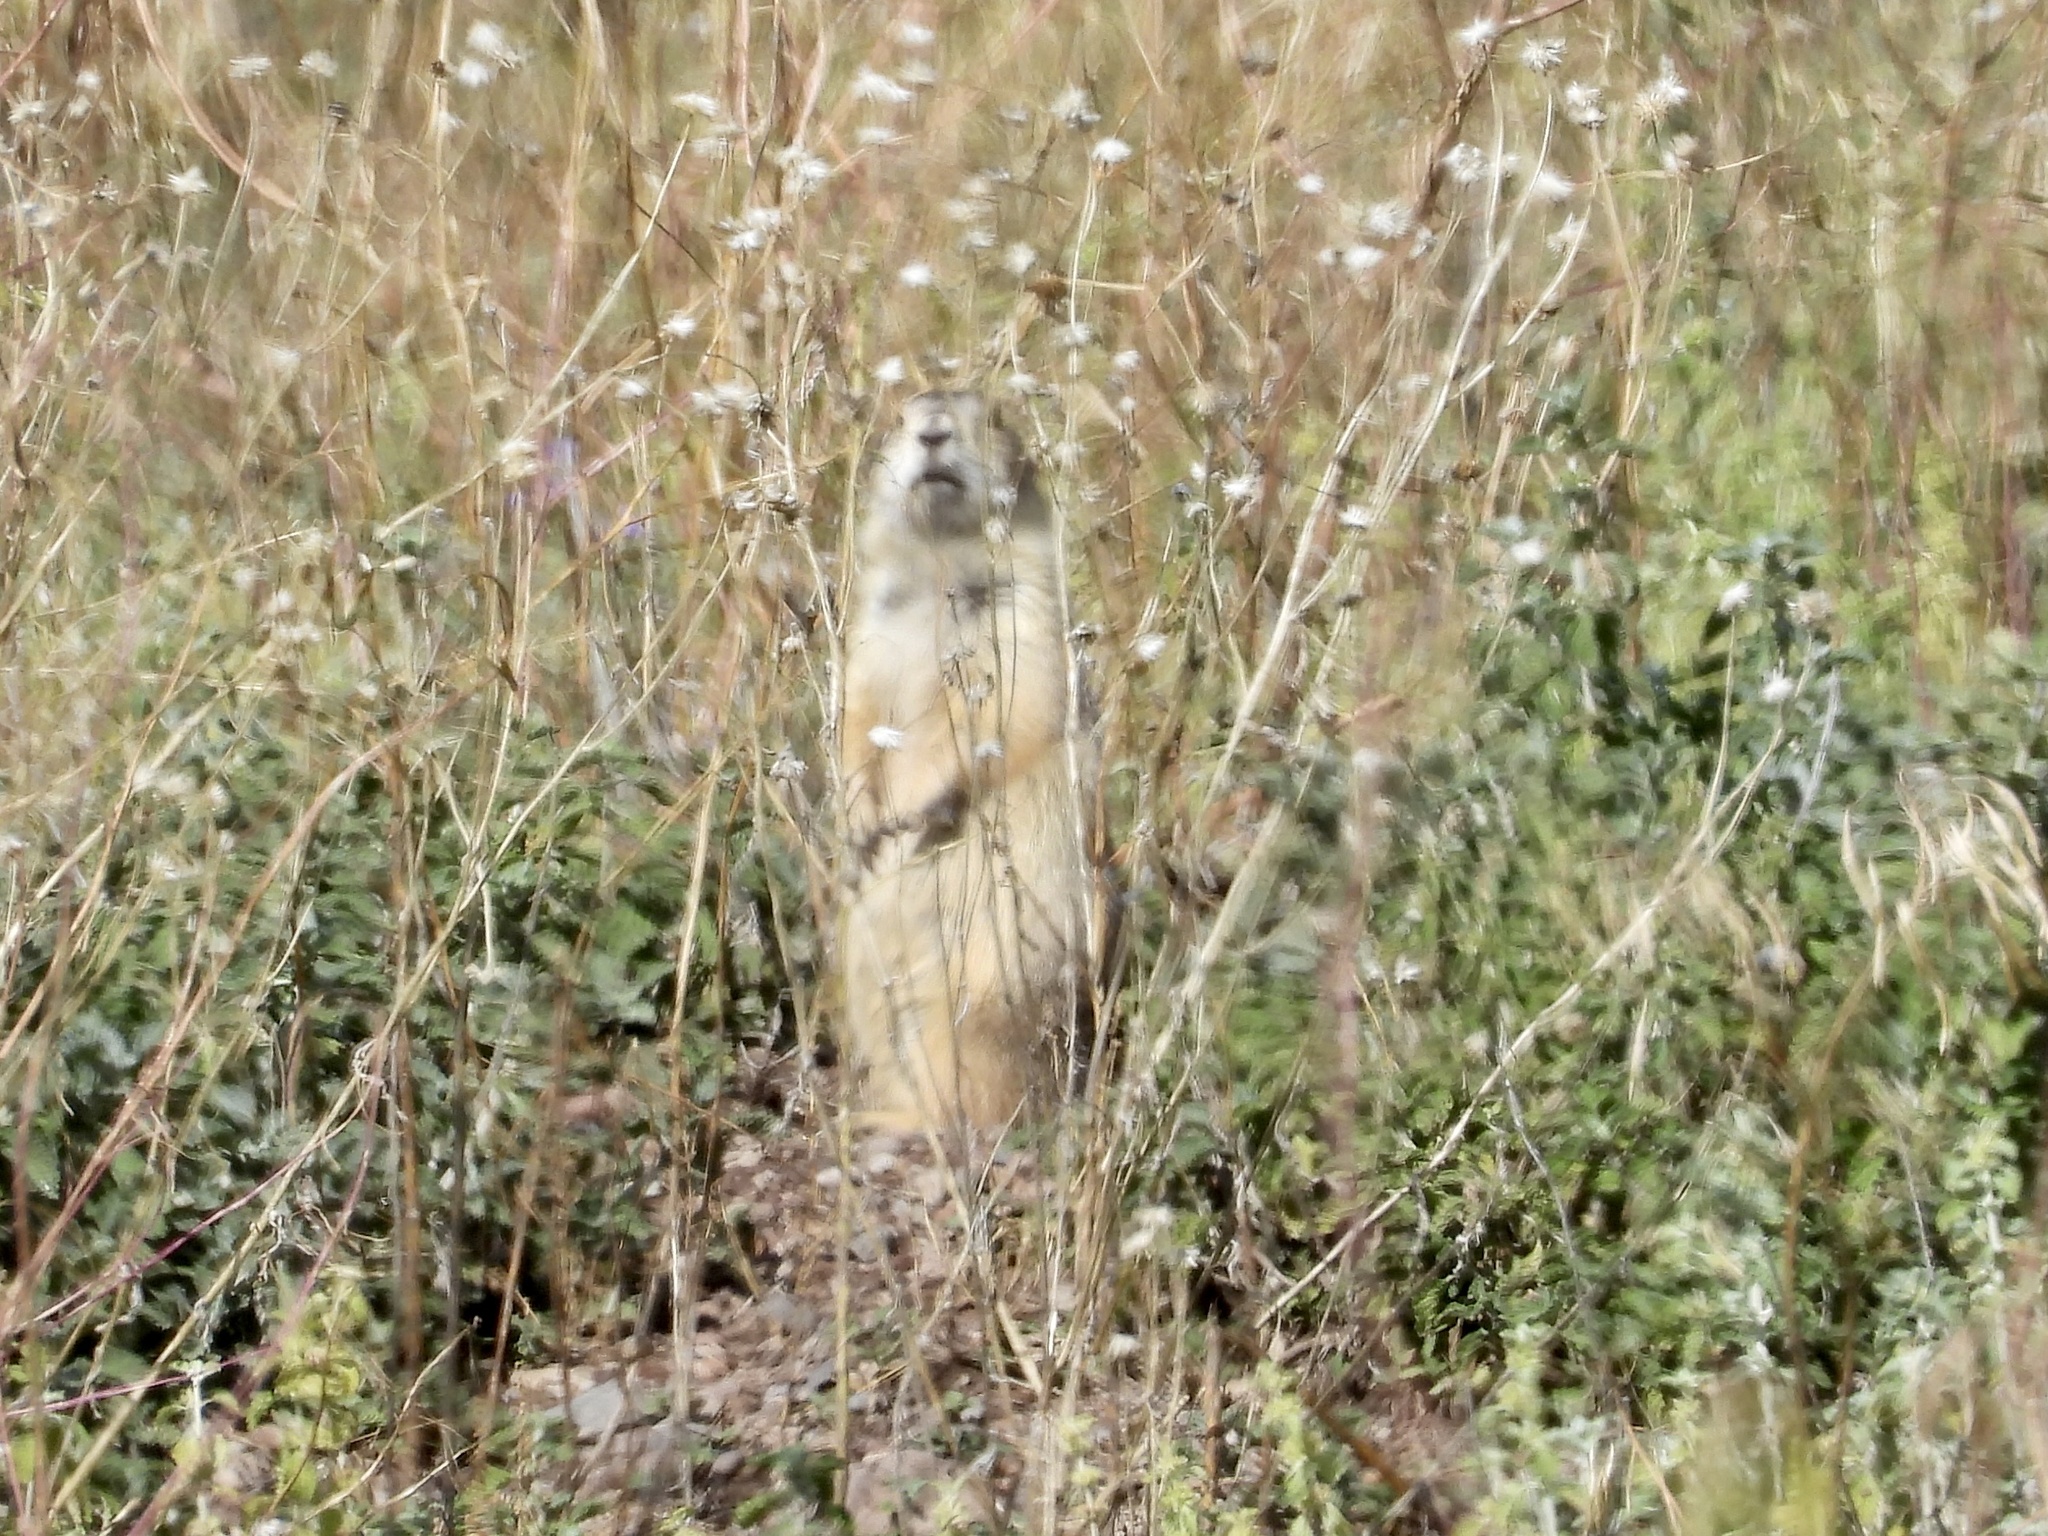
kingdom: Animalia
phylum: Chordata
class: Mammalia
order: Rodentia
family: Sciuridae
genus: Cynomys
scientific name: Cynomys gunnisoni
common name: Gunnison's prairie dog
